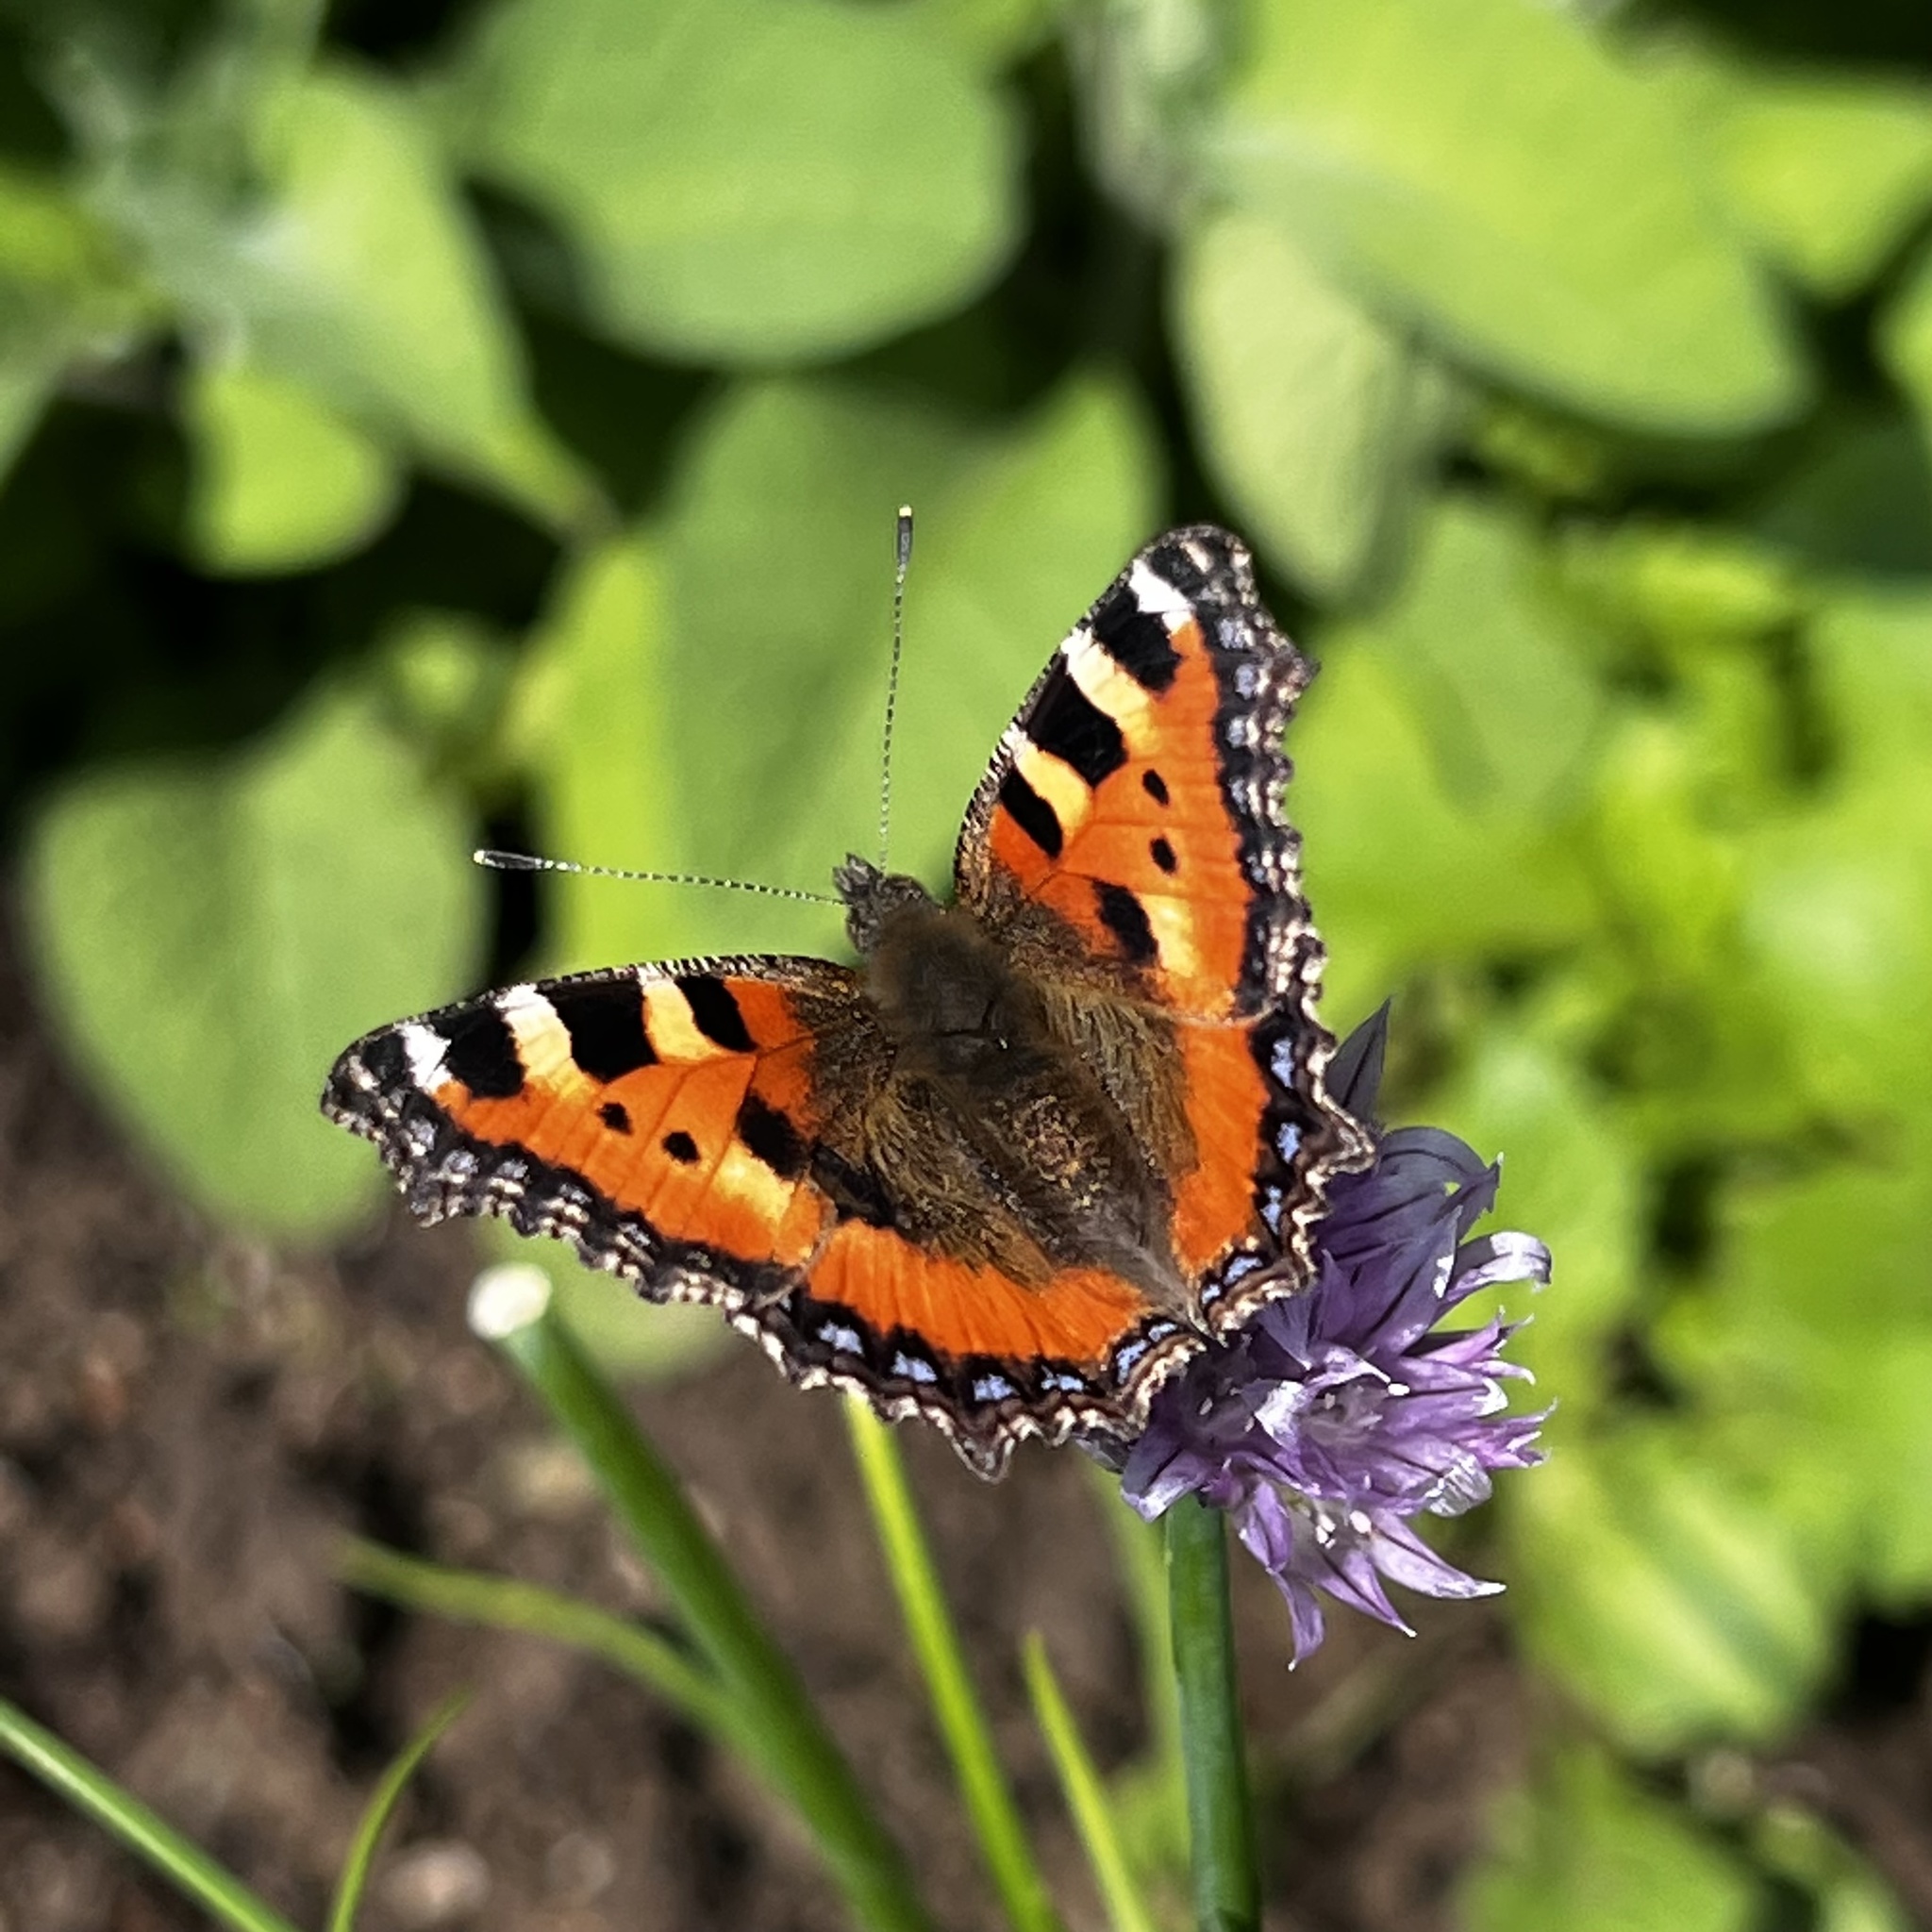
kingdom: Animalia
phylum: Arthropoda
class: Insecta
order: Lepidoptera
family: Nymphalidae
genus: Aglais
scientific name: Aglais urticae
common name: Small tortoiseshell
